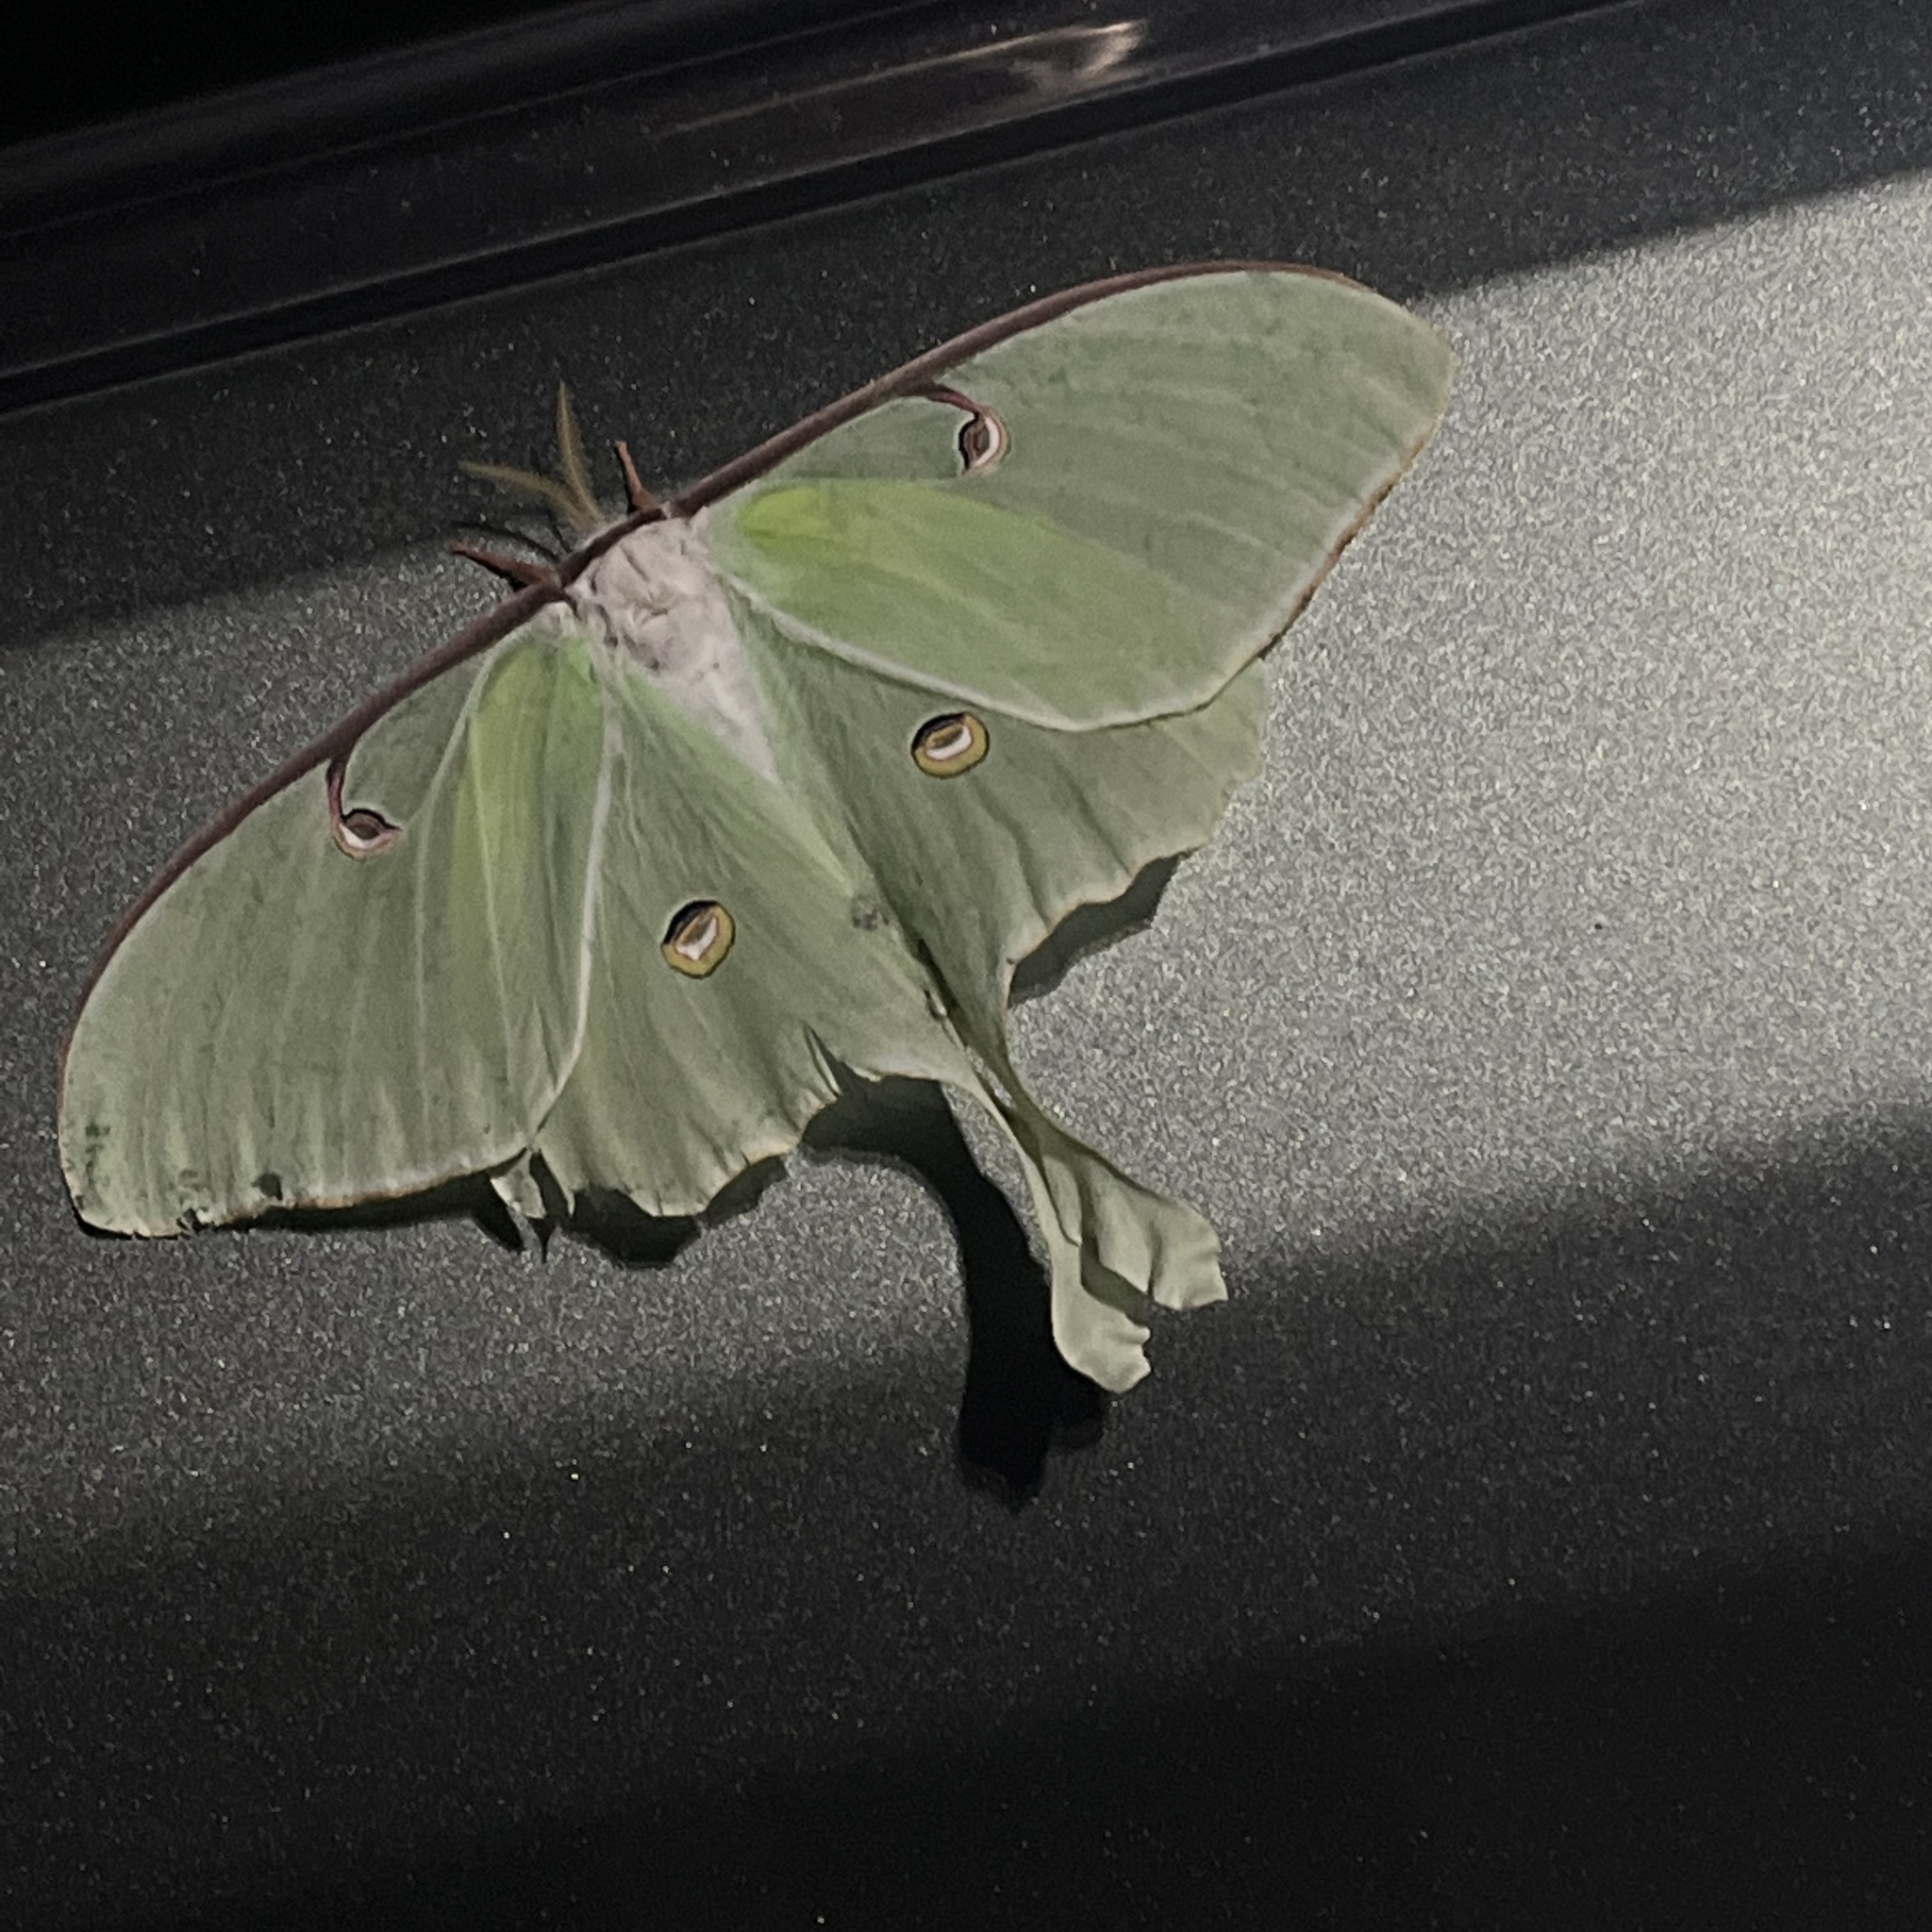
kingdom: Animalia
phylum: Arthropoda
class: Insecta
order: Lepidoptera
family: Saturniidae
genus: Actias
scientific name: Actias luna
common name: Luna moth
